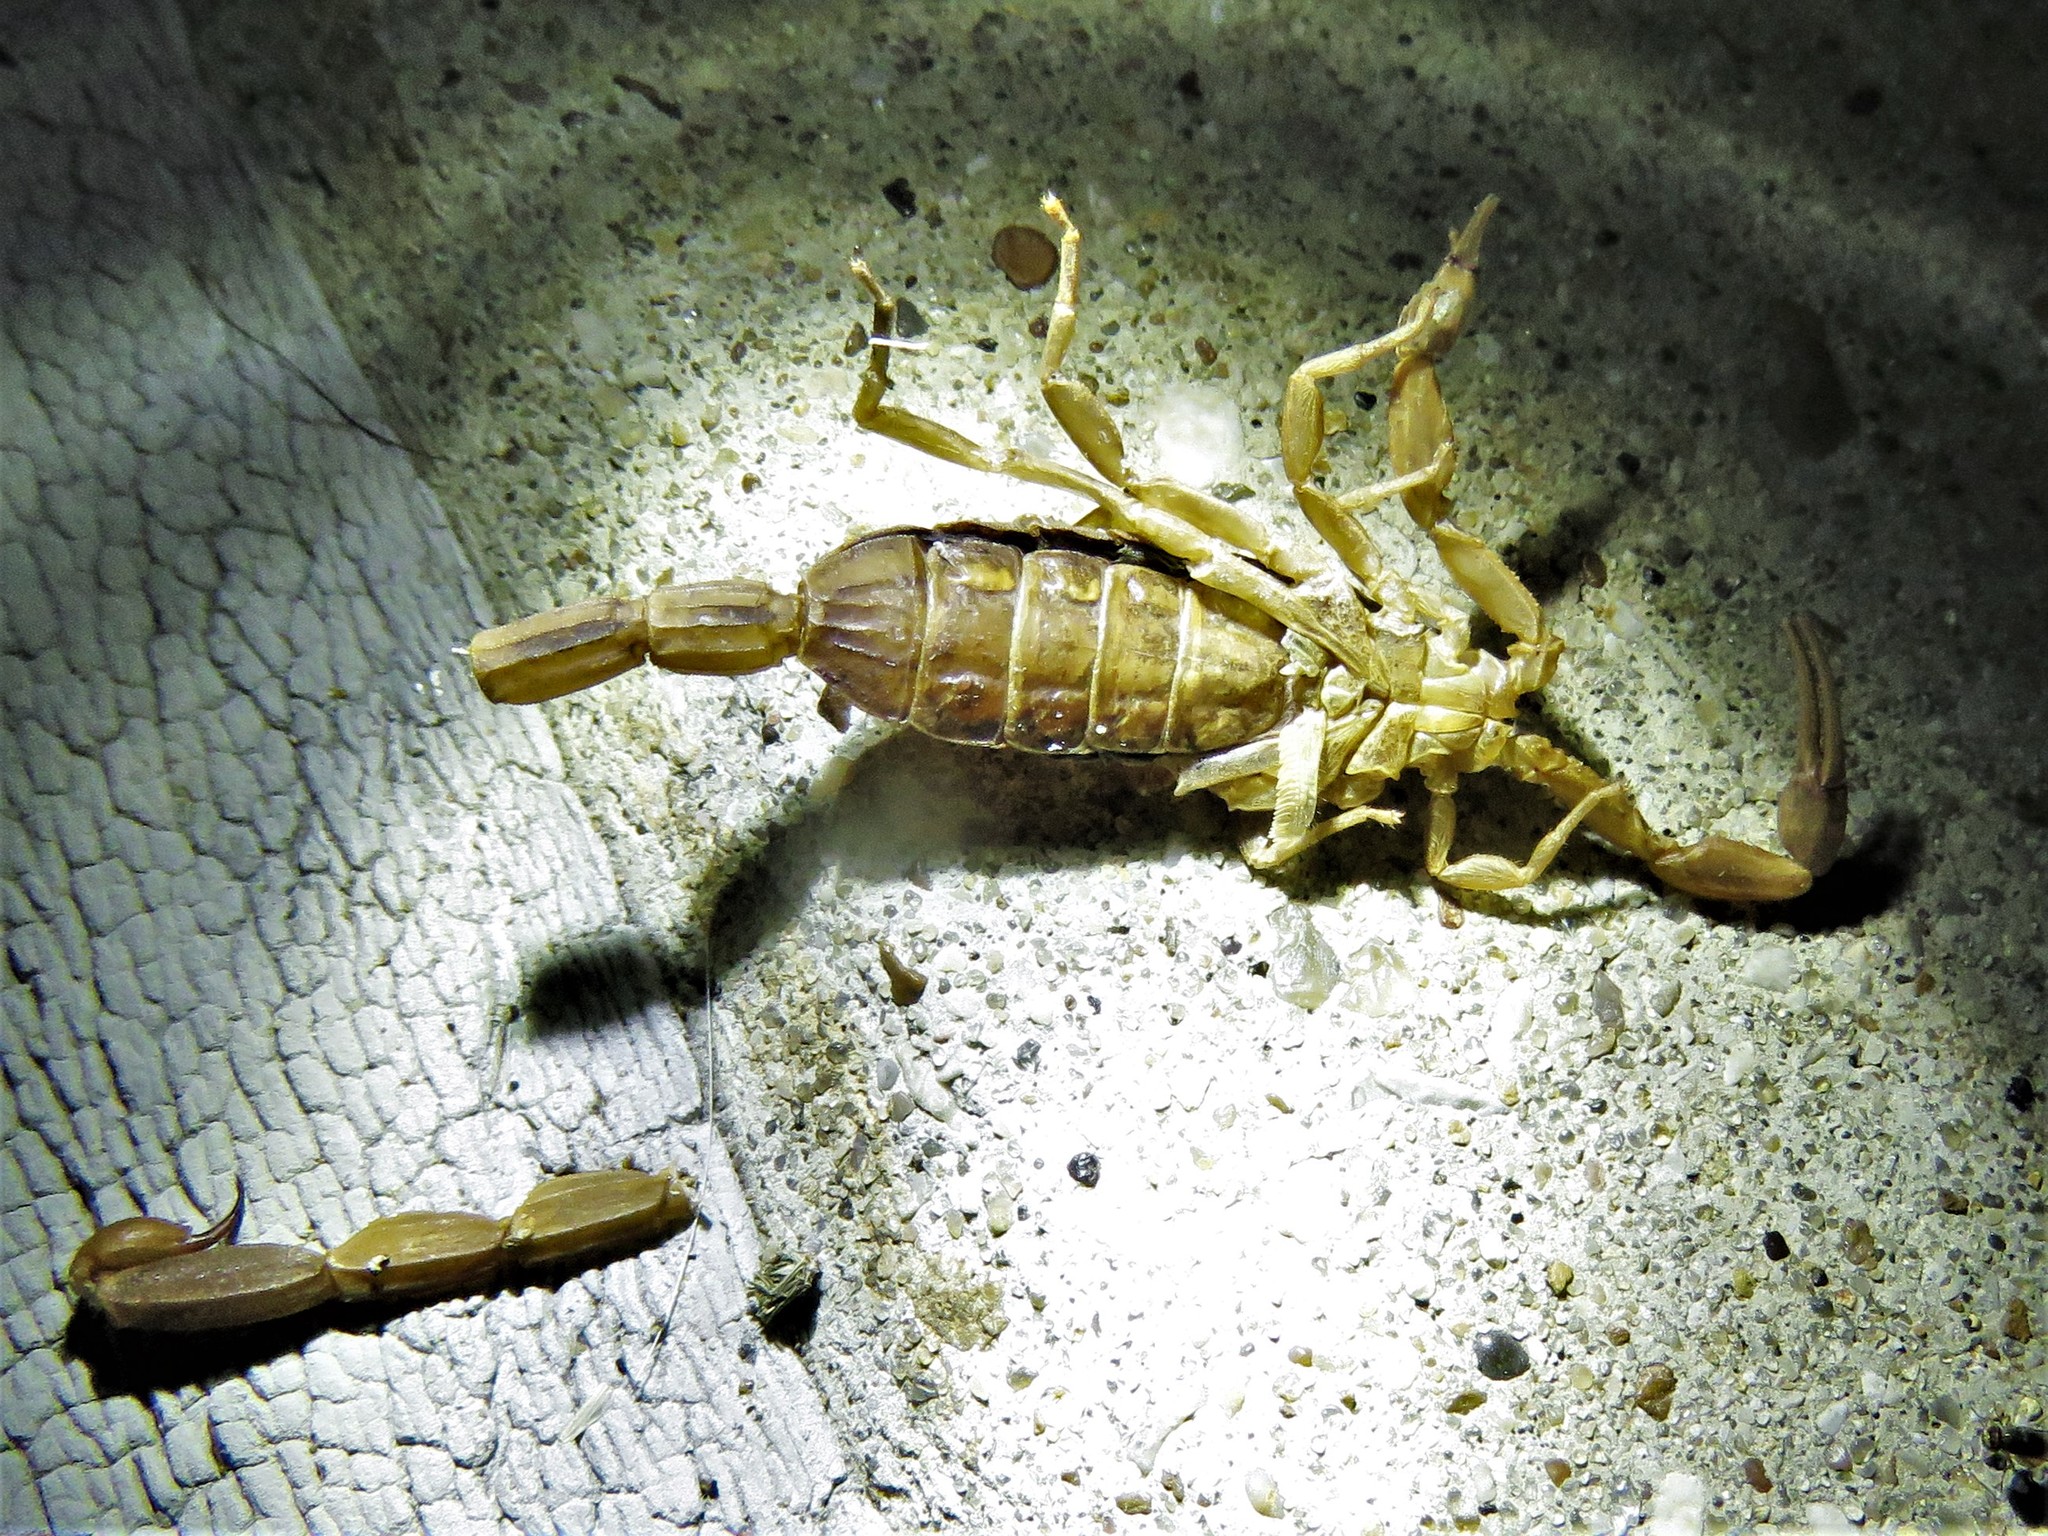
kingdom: Animalia
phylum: Arthropoda
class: Arachnida
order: Scorpiones
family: Buthidae
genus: Centruroides
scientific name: Centruroides vittatus
